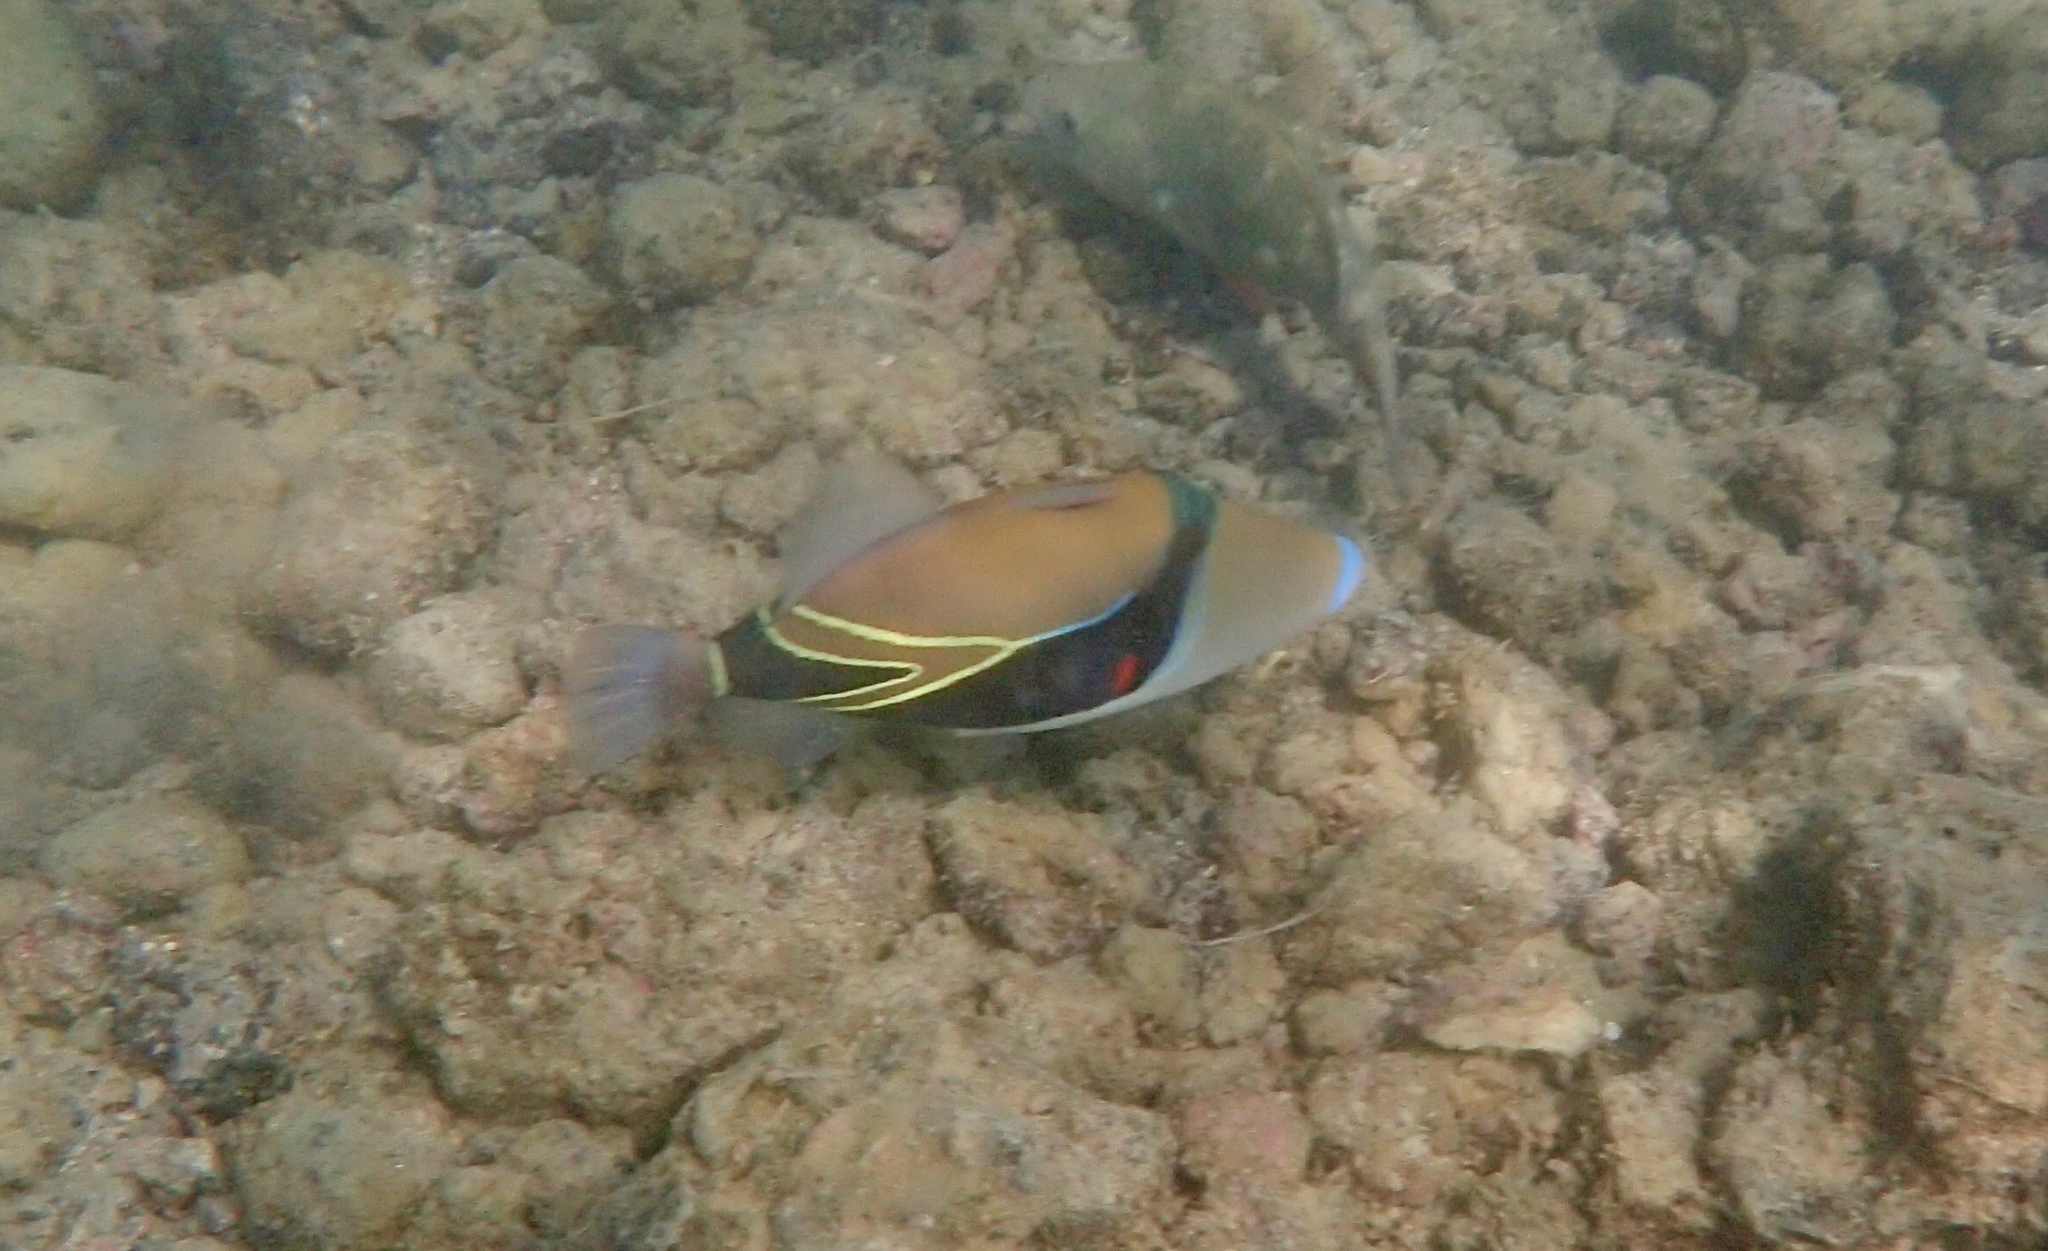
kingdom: Animalia
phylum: Chordata
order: Tetraodontiformes
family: Balistidae
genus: Rhinecanthus
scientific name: Rhinecanthus rectangulus
